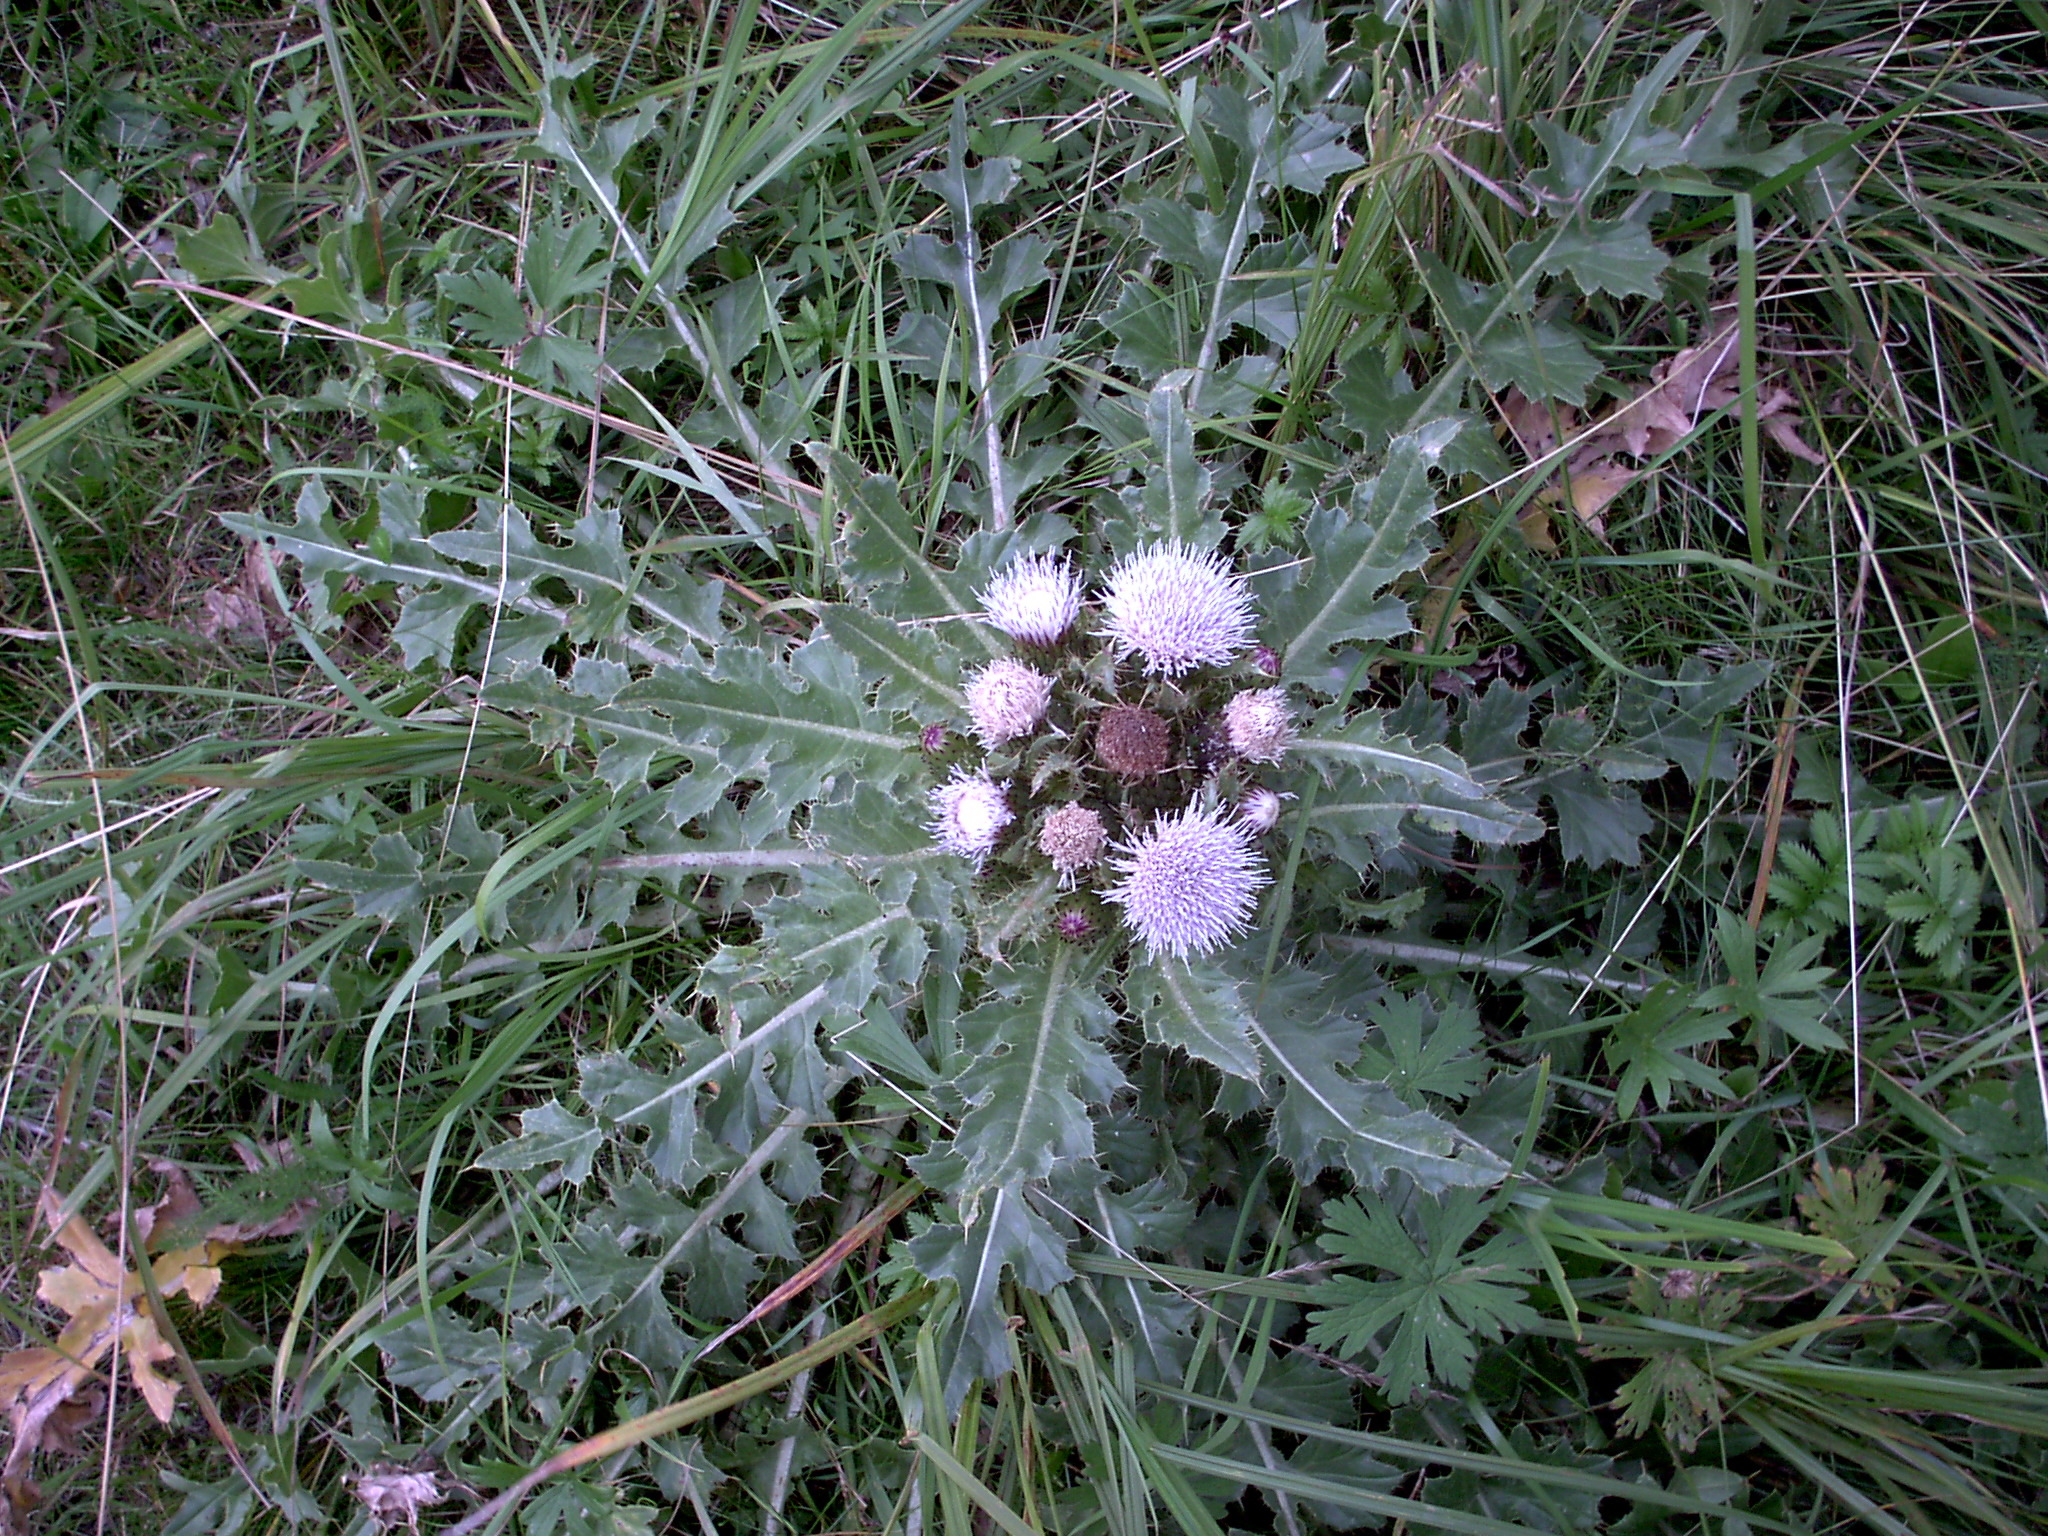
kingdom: Plantae
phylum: Tracheophyta
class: Magnoliopsida
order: Asterales
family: Asteraceae
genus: Cirsium
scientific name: Cirsium esculentum
